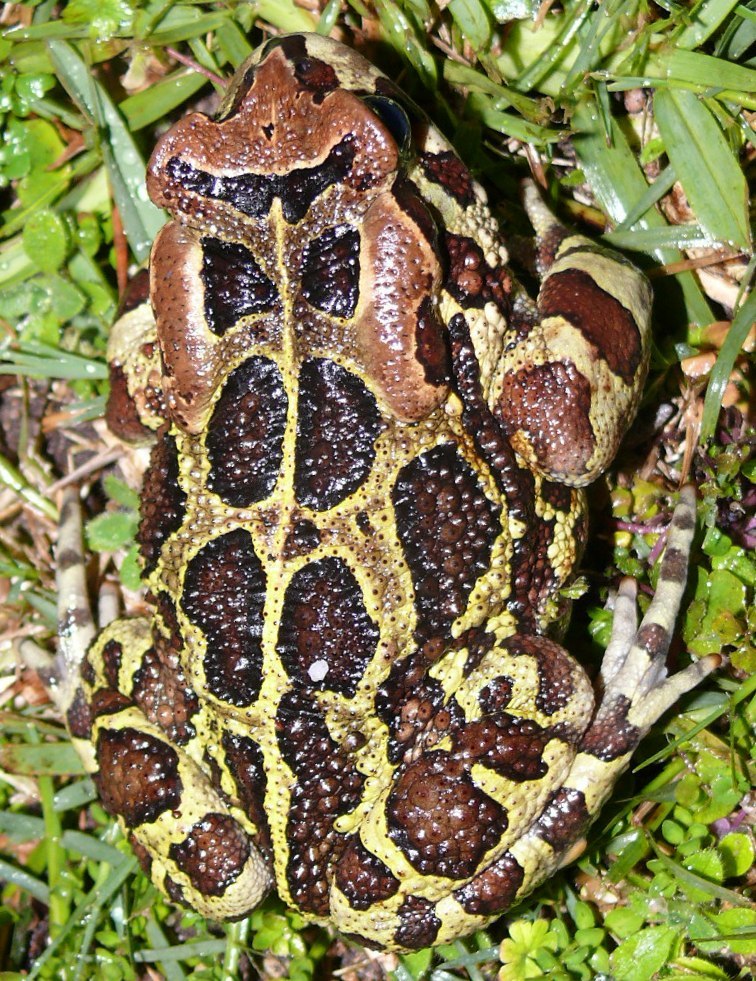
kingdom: Animalia
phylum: Chordata
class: Amphibia
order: Anura
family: Bufonidae
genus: Sclerophrys
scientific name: Sclerophrys pantherina
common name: Panther toad
